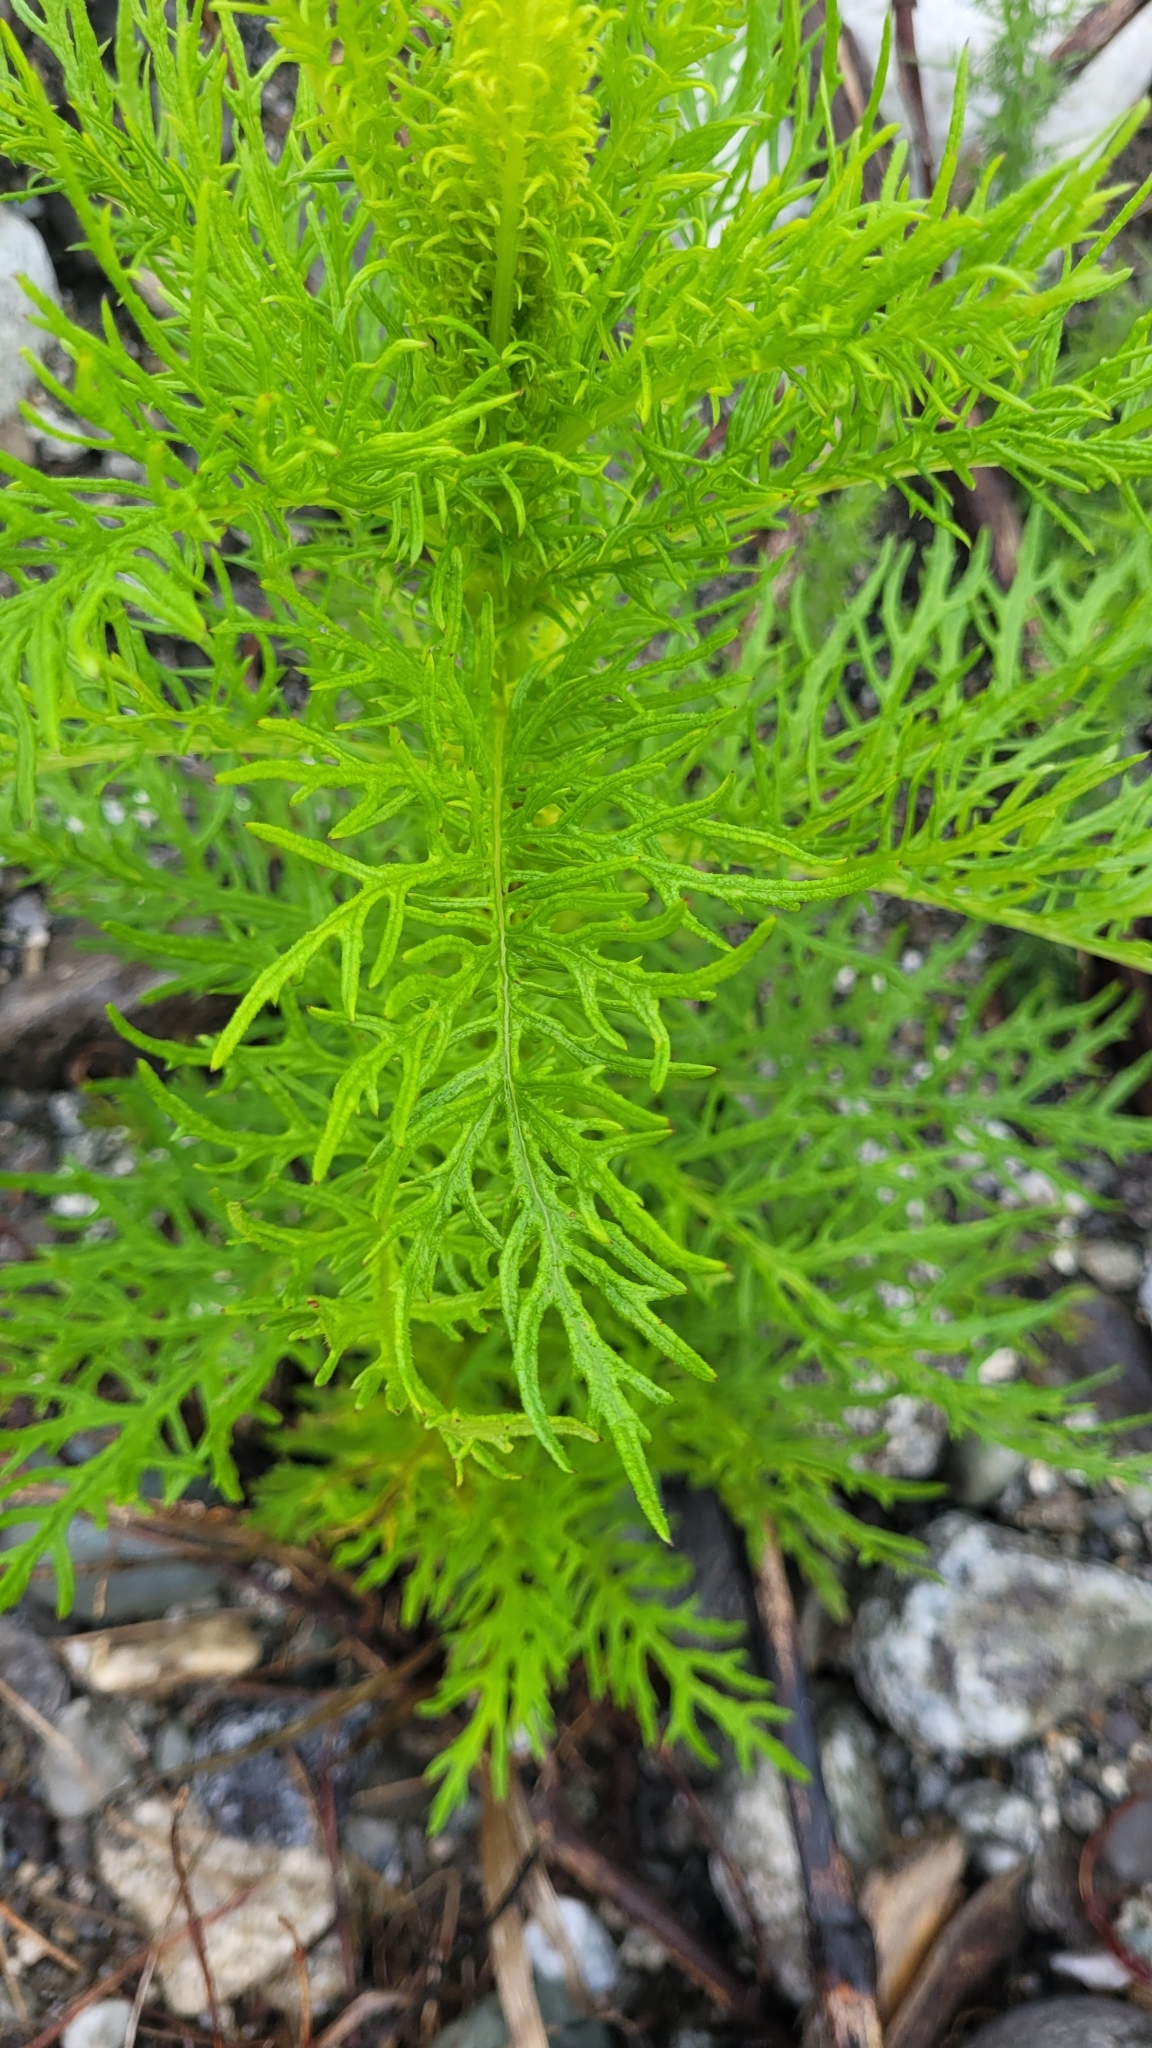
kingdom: Plantae
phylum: Tracheophyta
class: Magnoliopsida
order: Asterales
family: Asteraceae
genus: Senecio
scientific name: Senecio bipinnatisectus
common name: Australian fireweed
